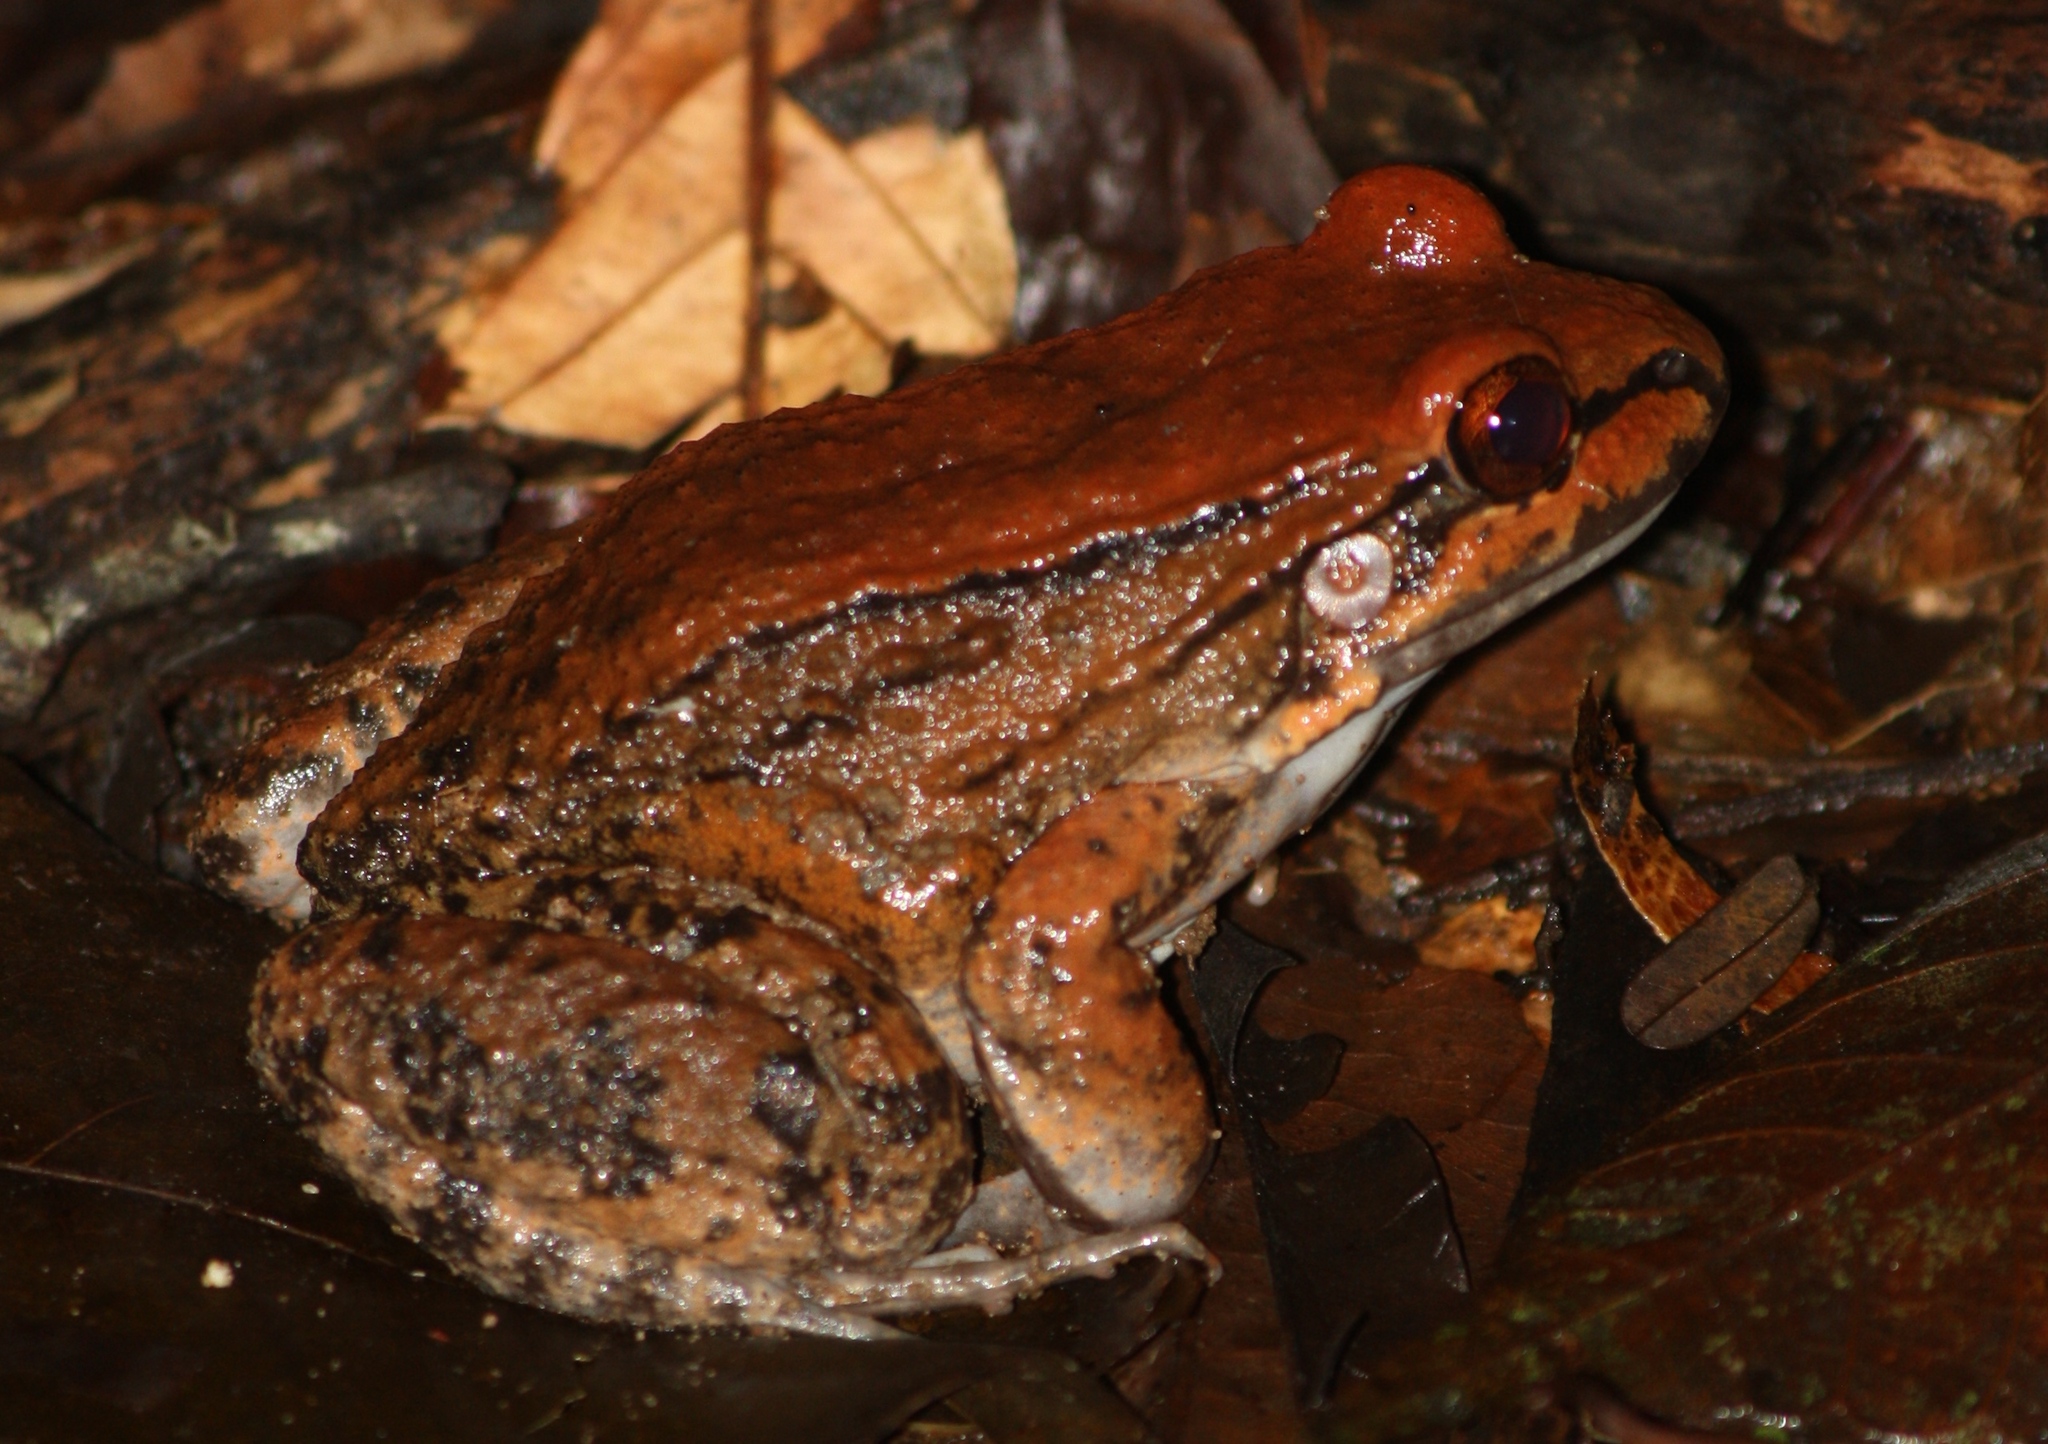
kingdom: Animalia
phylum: Chordata
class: Amphibia
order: Anura
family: Leptodactylidae
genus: Leptodactylus
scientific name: Leptodactylus rhodonotus
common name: Peru white-lipped frog
